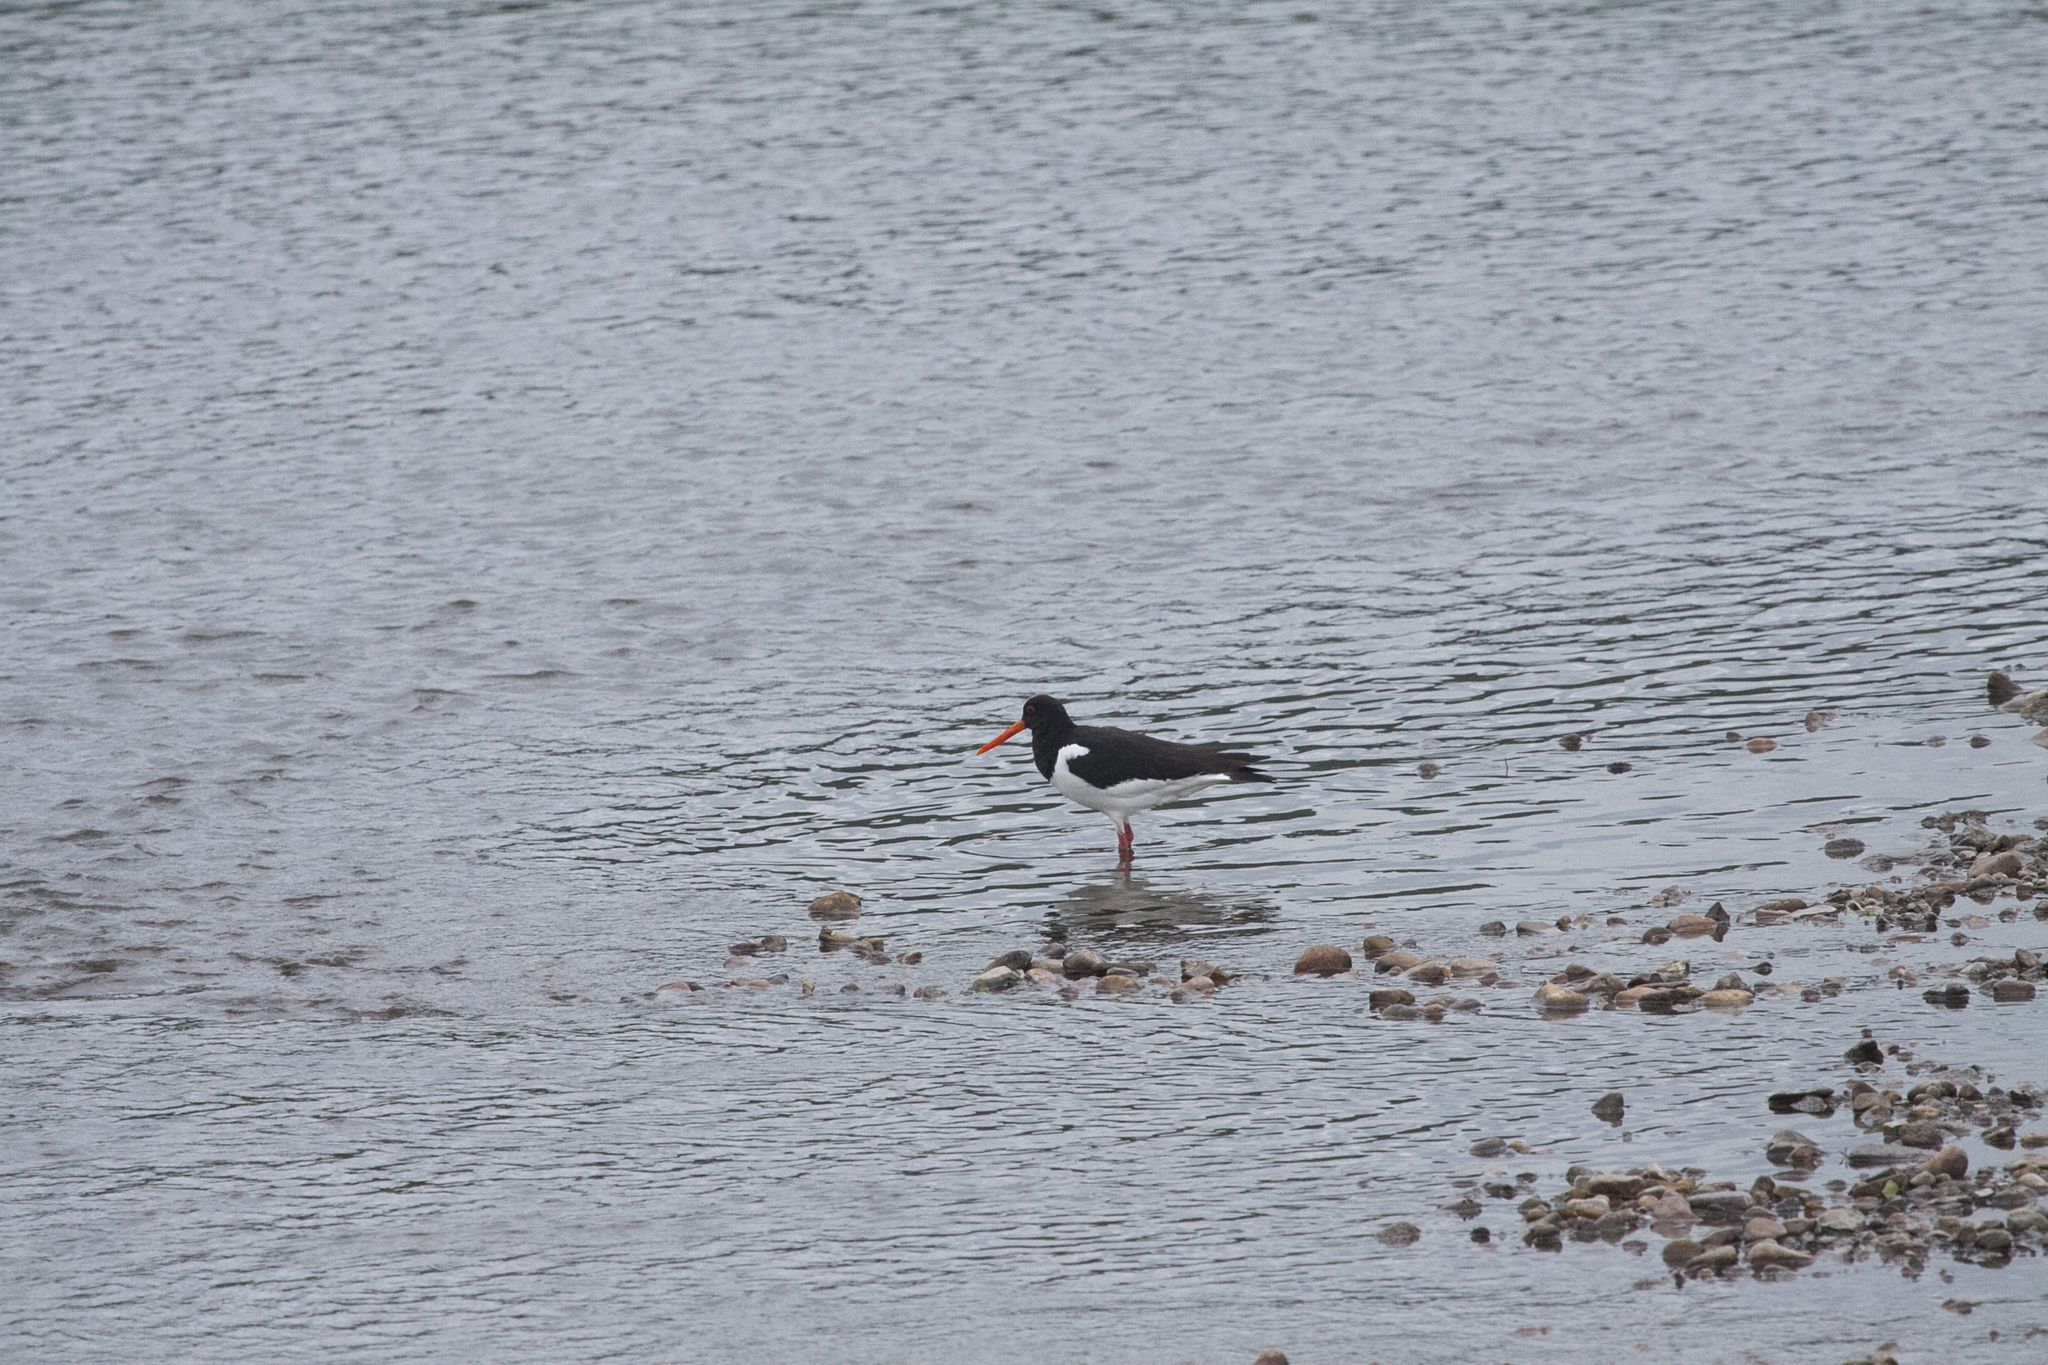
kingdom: Animalia
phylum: Chordata
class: Aves
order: Charadriiformes
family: Haematopodidae
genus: Haematopus
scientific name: Haematopus ostralegus
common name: Eurasian oystercatcher
